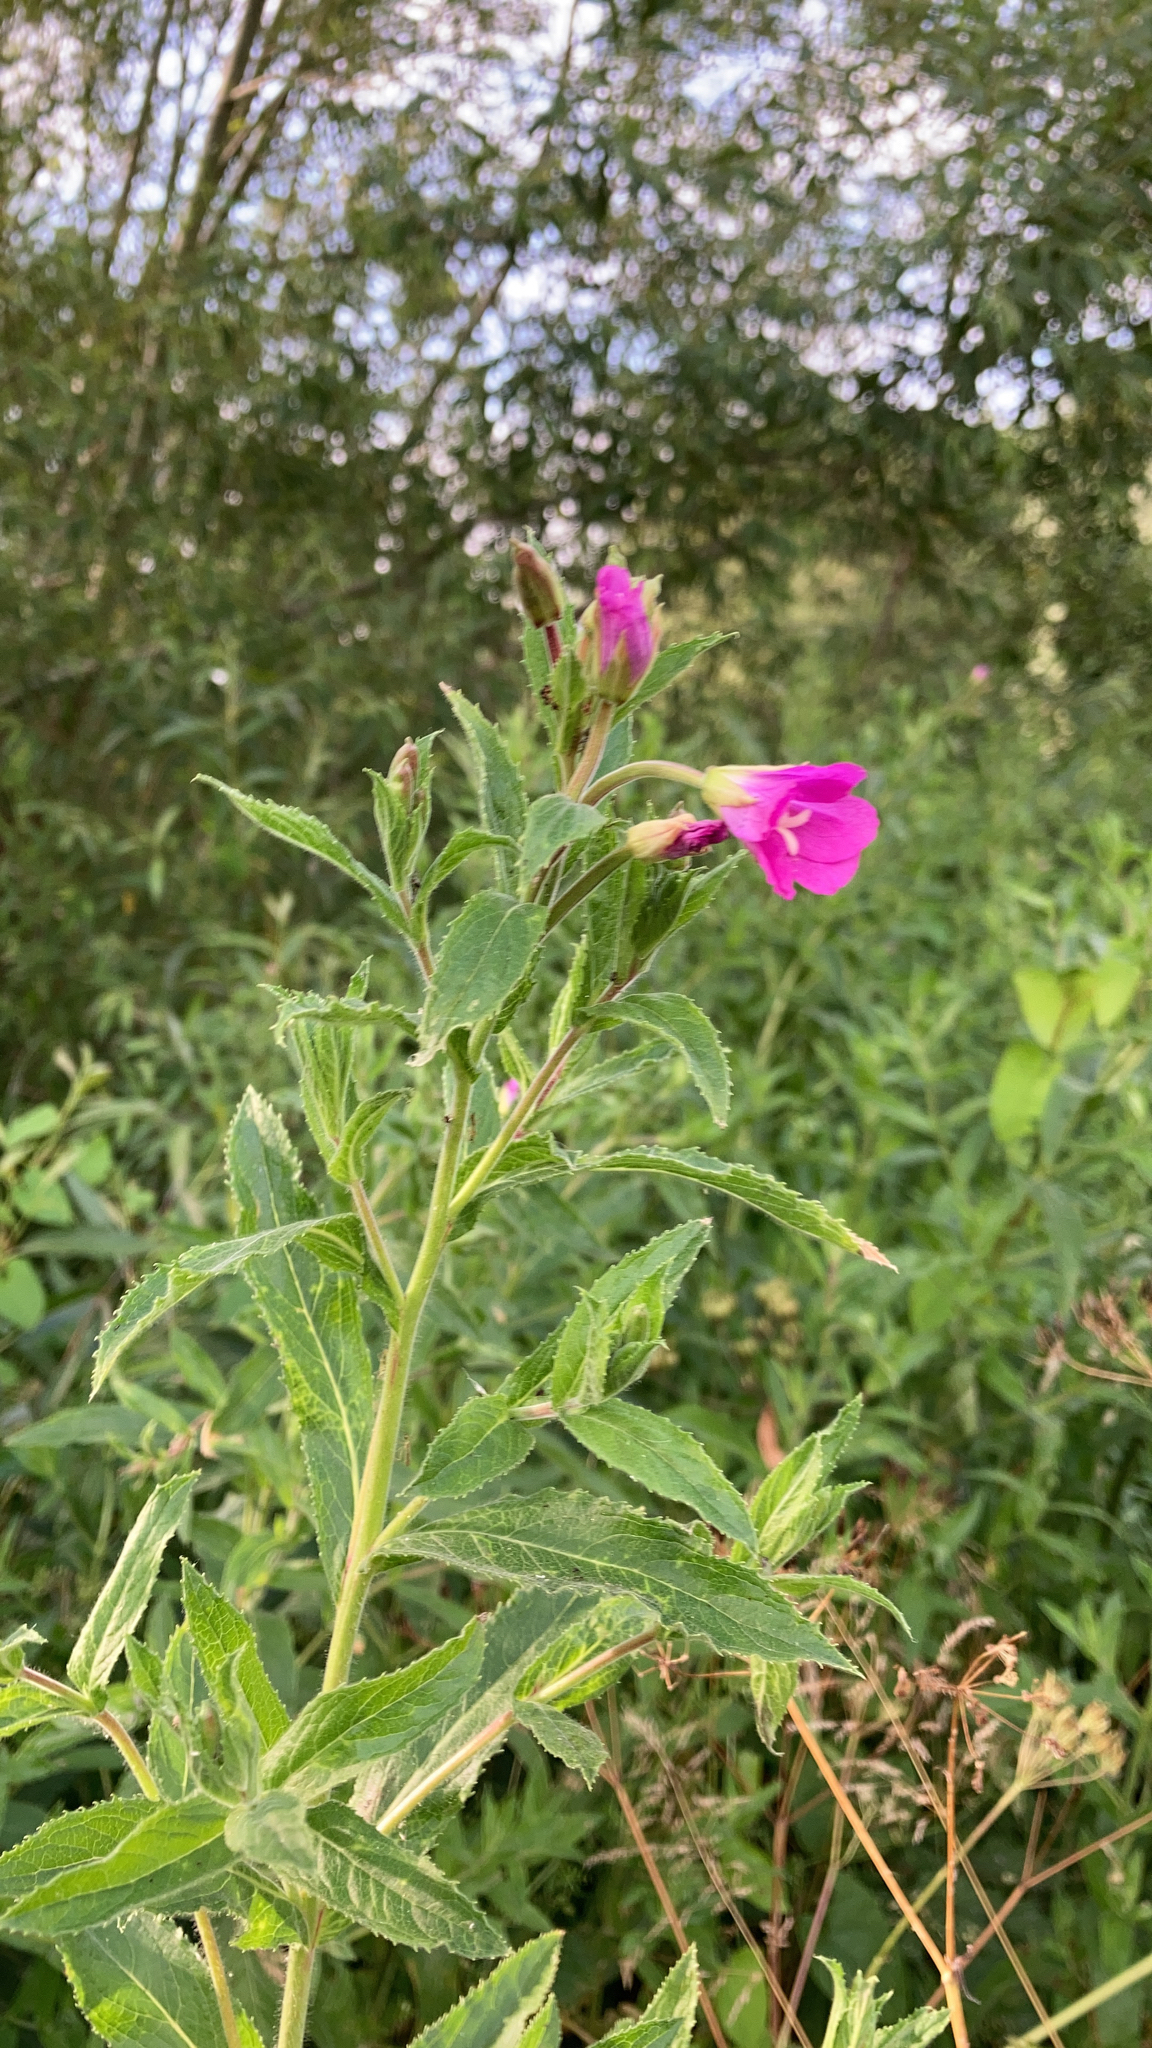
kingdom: Plantae
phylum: Tracheophyta
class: Magnoliopsida
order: Myrtales
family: Onagraceae
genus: Epilobium
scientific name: Epilobium hirsutum
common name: Great willowherb
